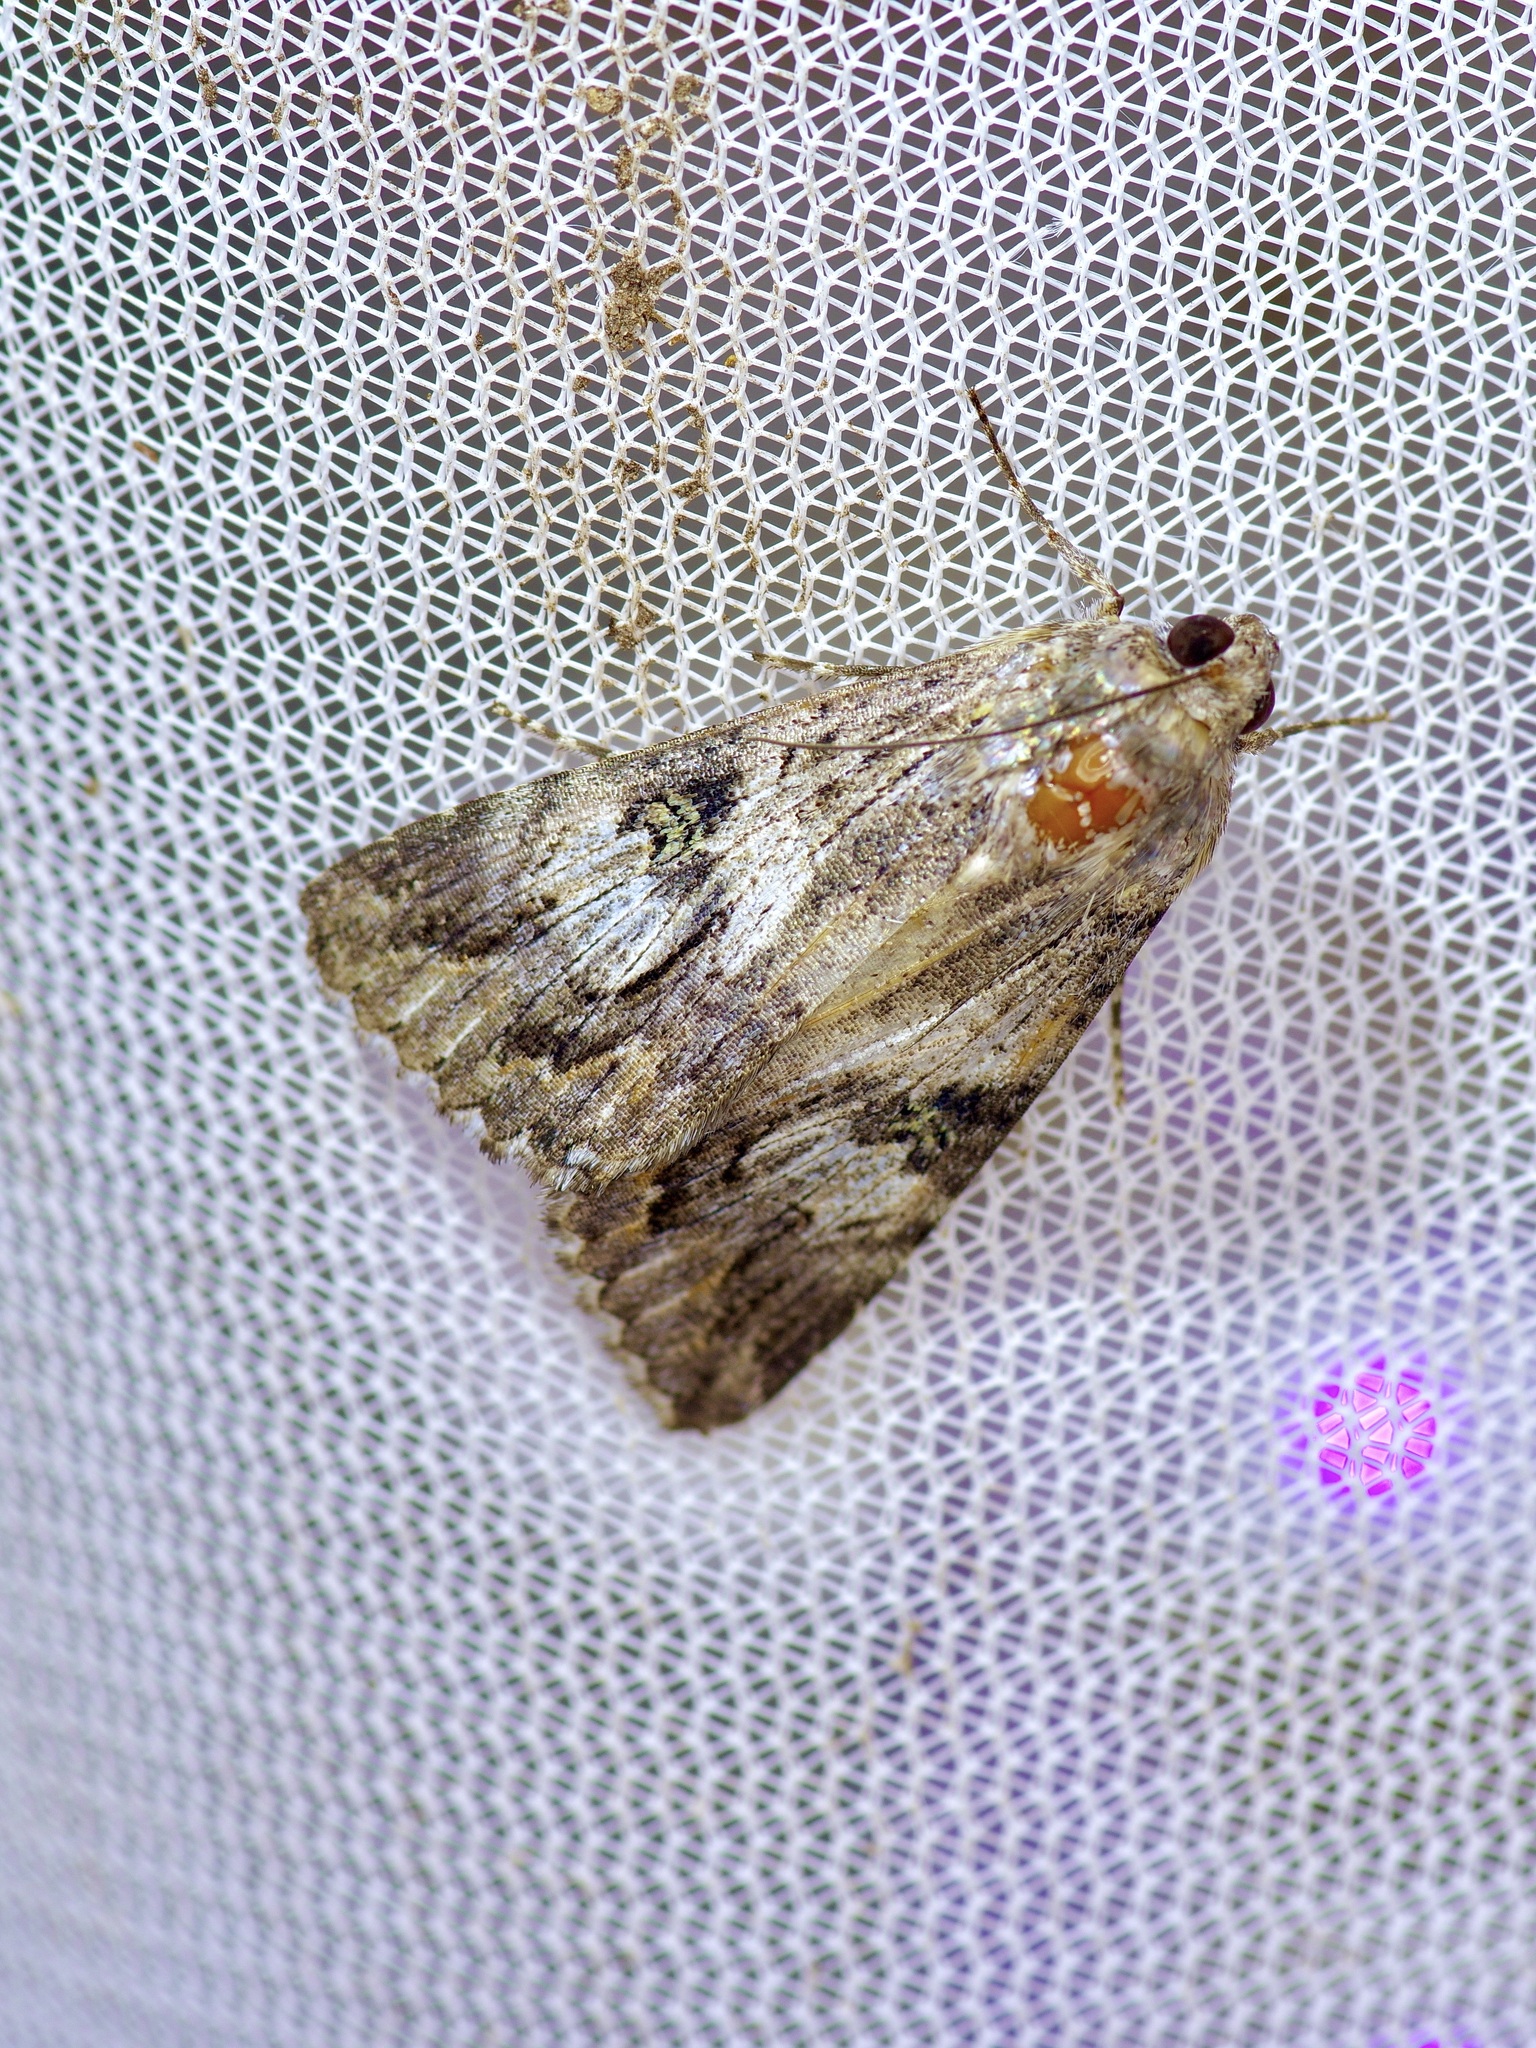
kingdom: Animalia
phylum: Arthropoda
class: Insecta
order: Lepidoptera
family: Erebidae
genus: Melipotis
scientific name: Melipotis jucunda
